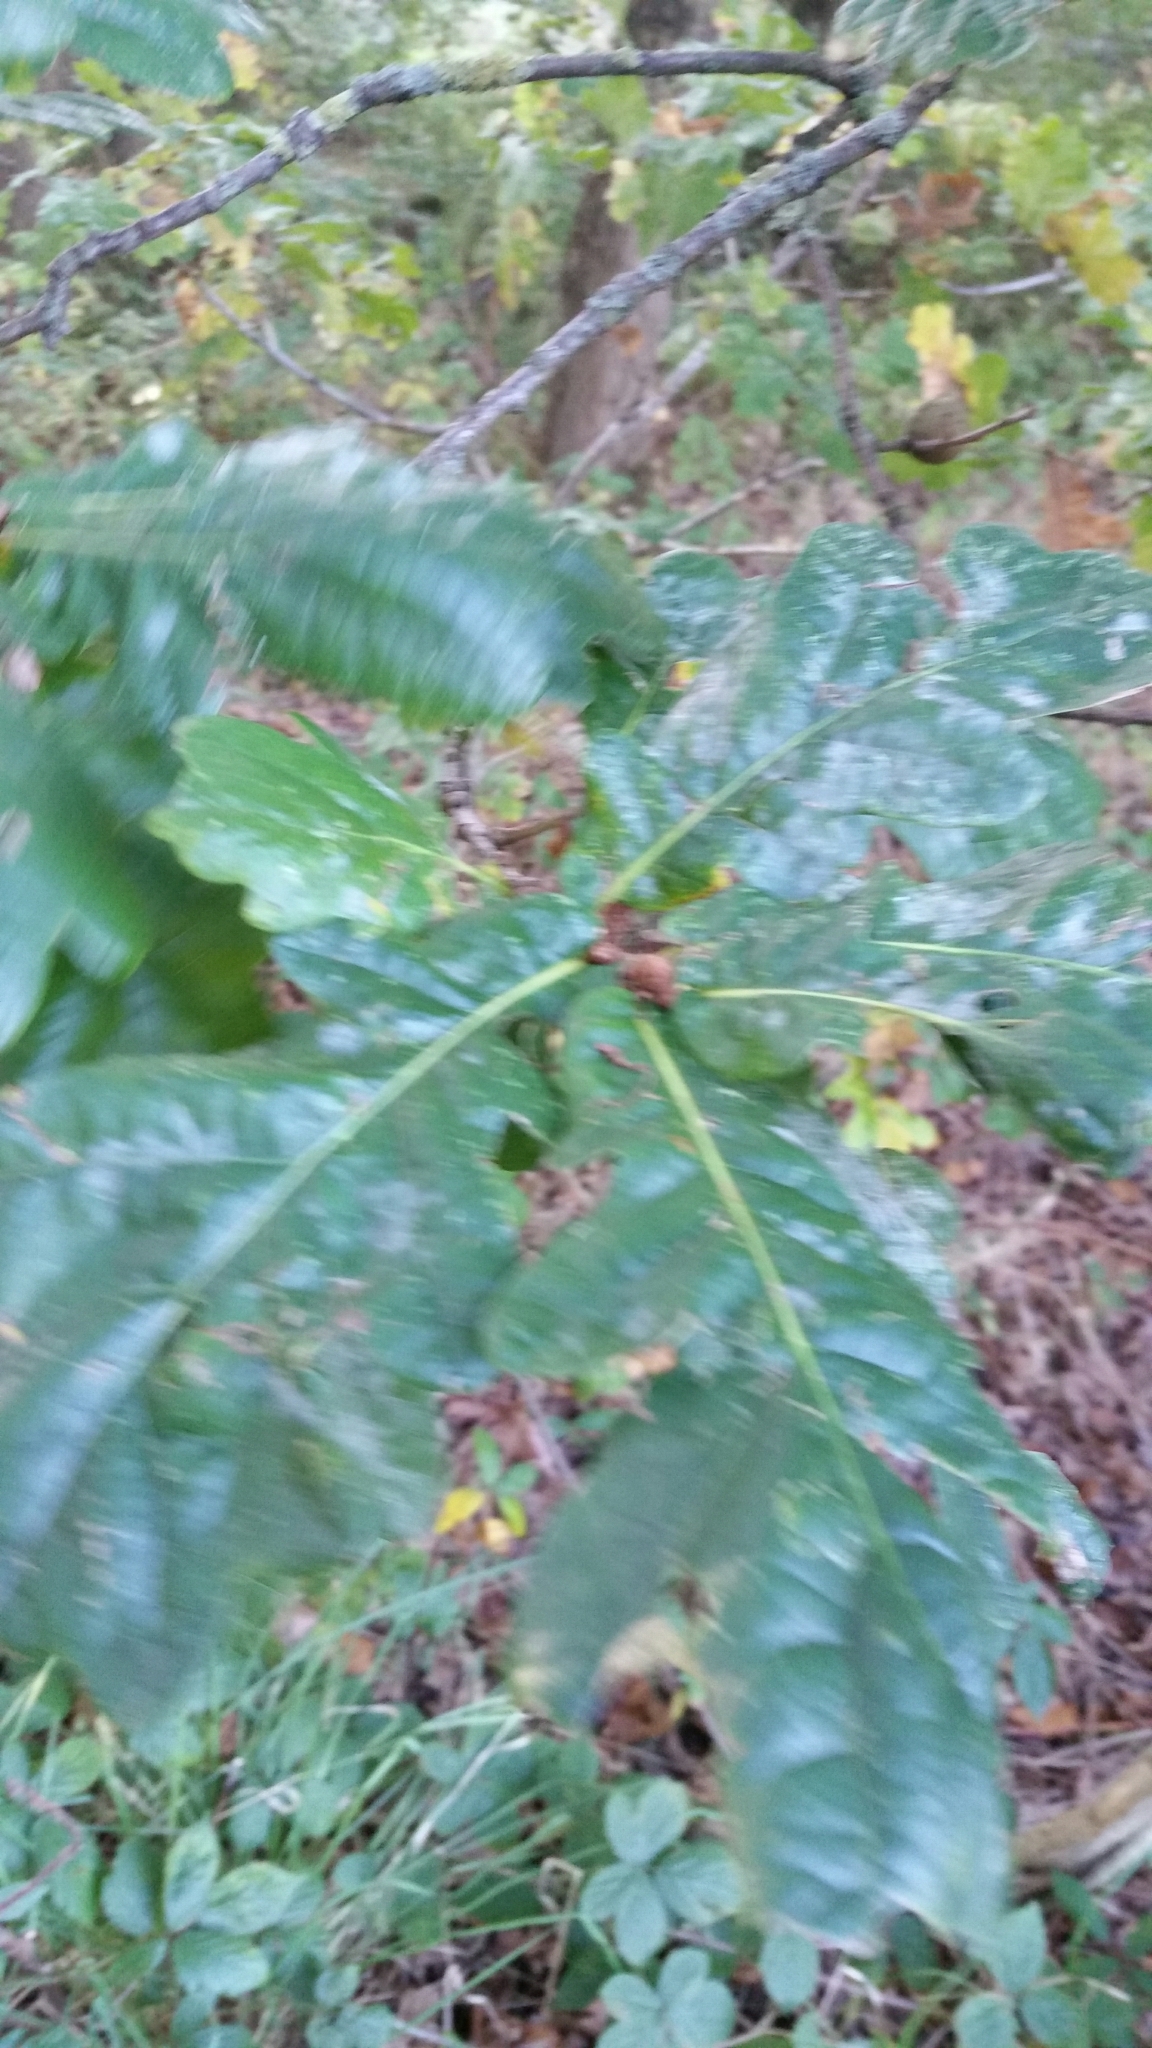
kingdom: Plantae
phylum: Tracheophyta
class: Magnoliopsida
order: Fagales
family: Fagaceae
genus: Quercus
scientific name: Quercus robur
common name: Pedunculate oak
